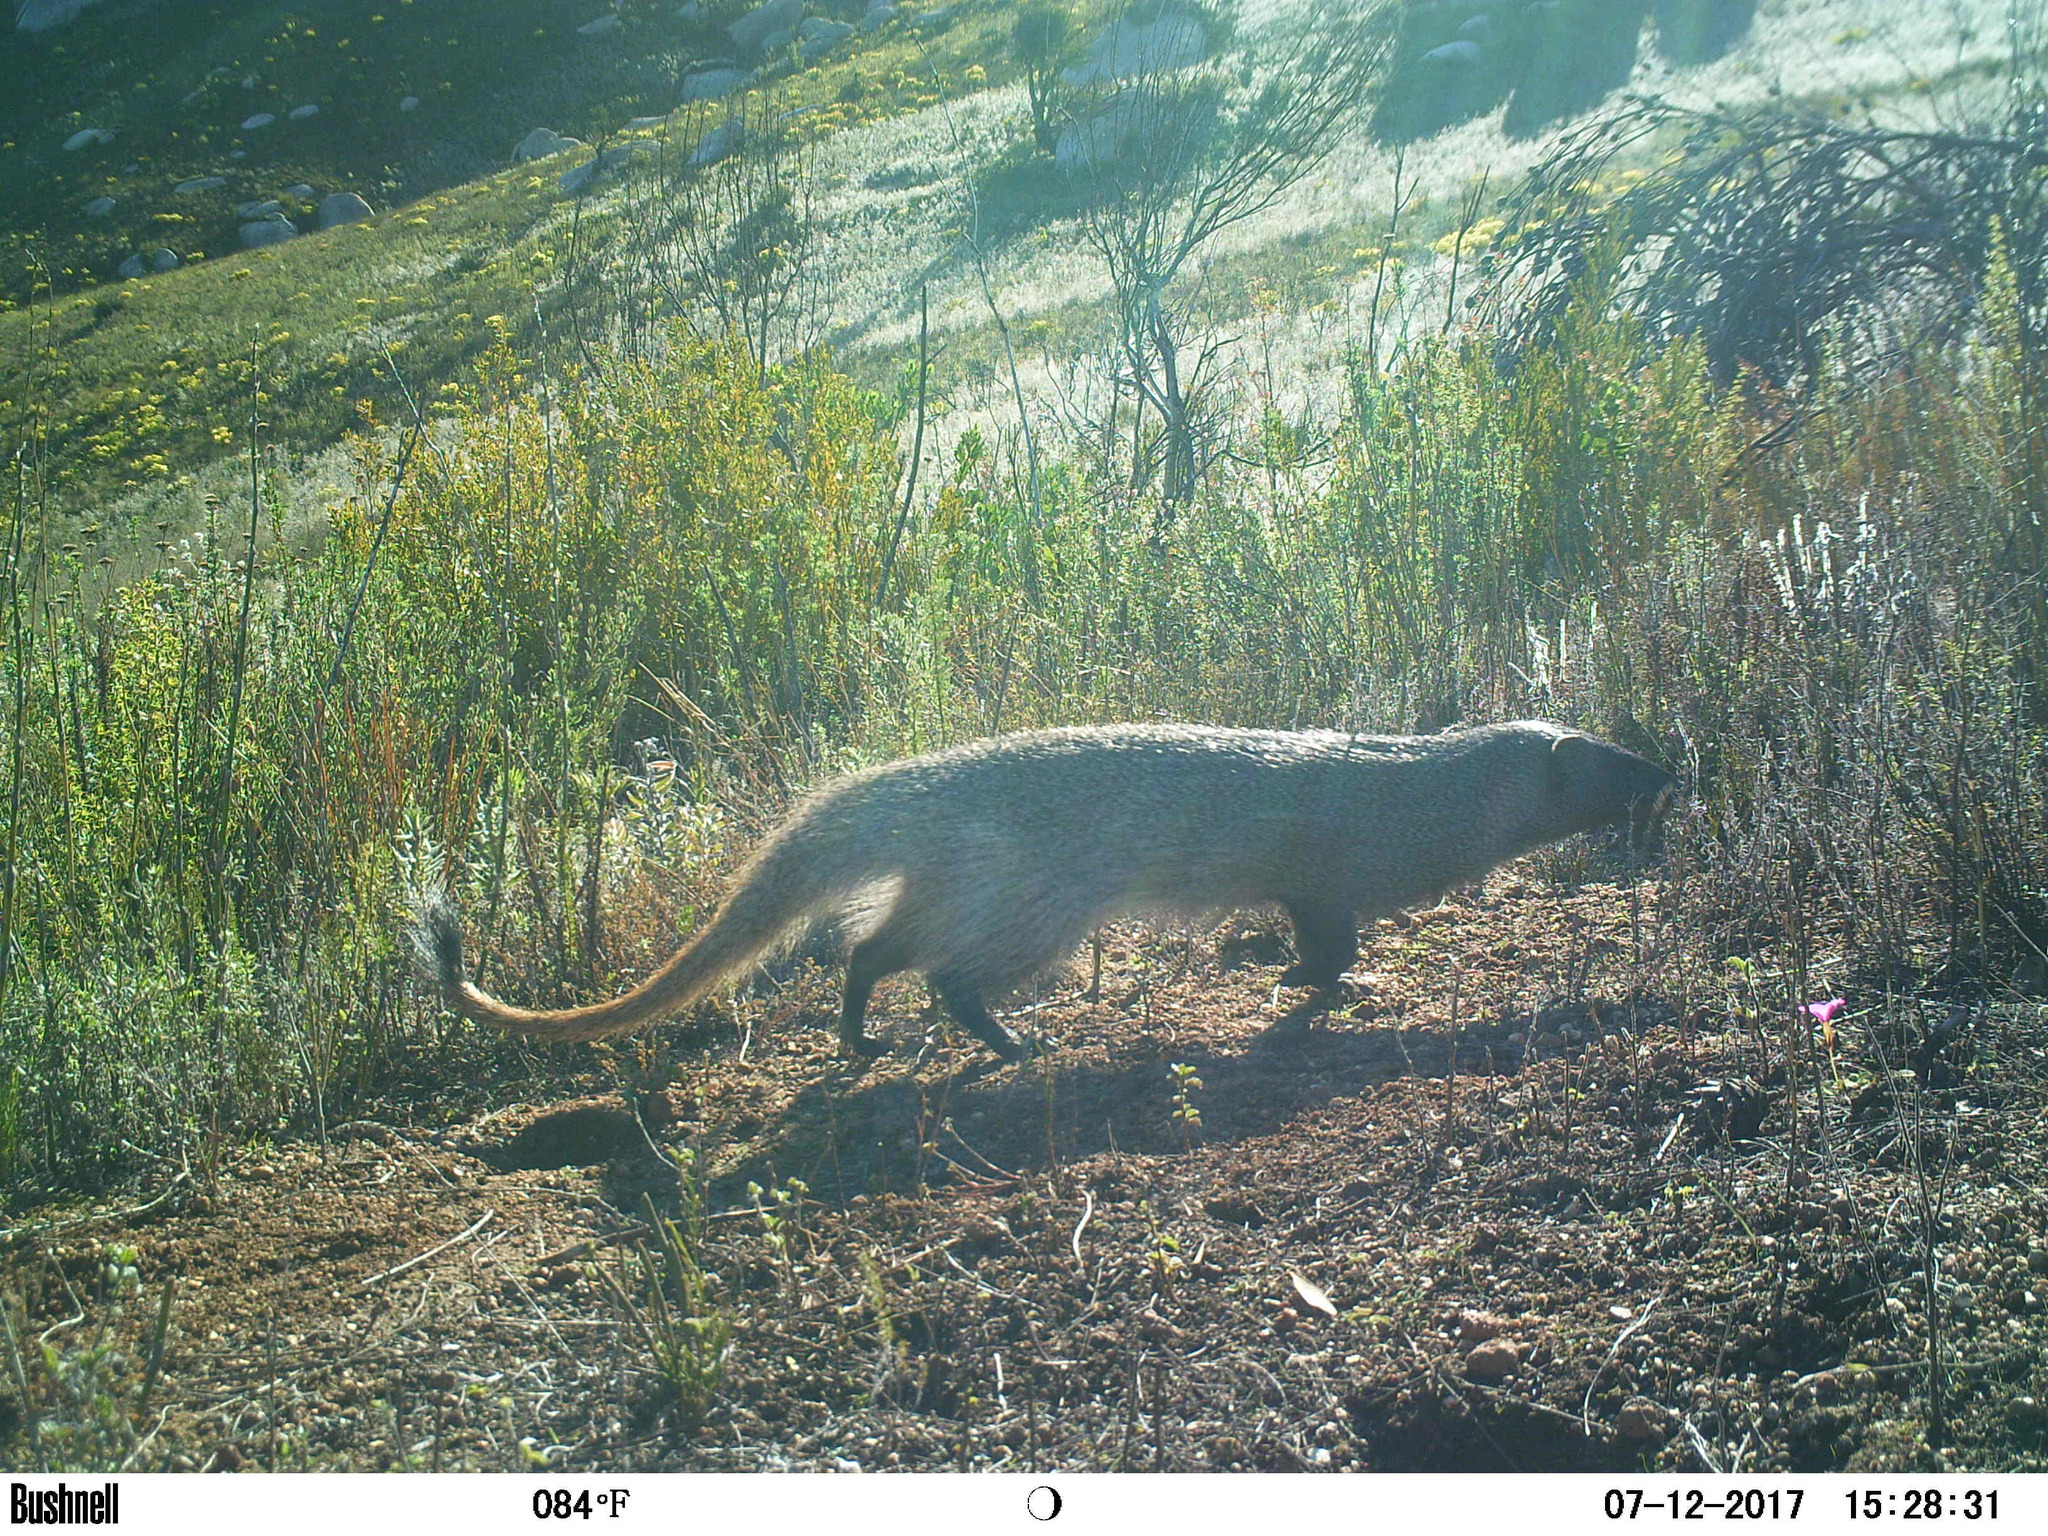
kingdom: Animalia
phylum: Chordata
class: Mammalia
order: Carnivora
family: Herpestidae
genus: Herpestes
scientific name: Herpestes ichneumon
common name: Egyptian mongoose
